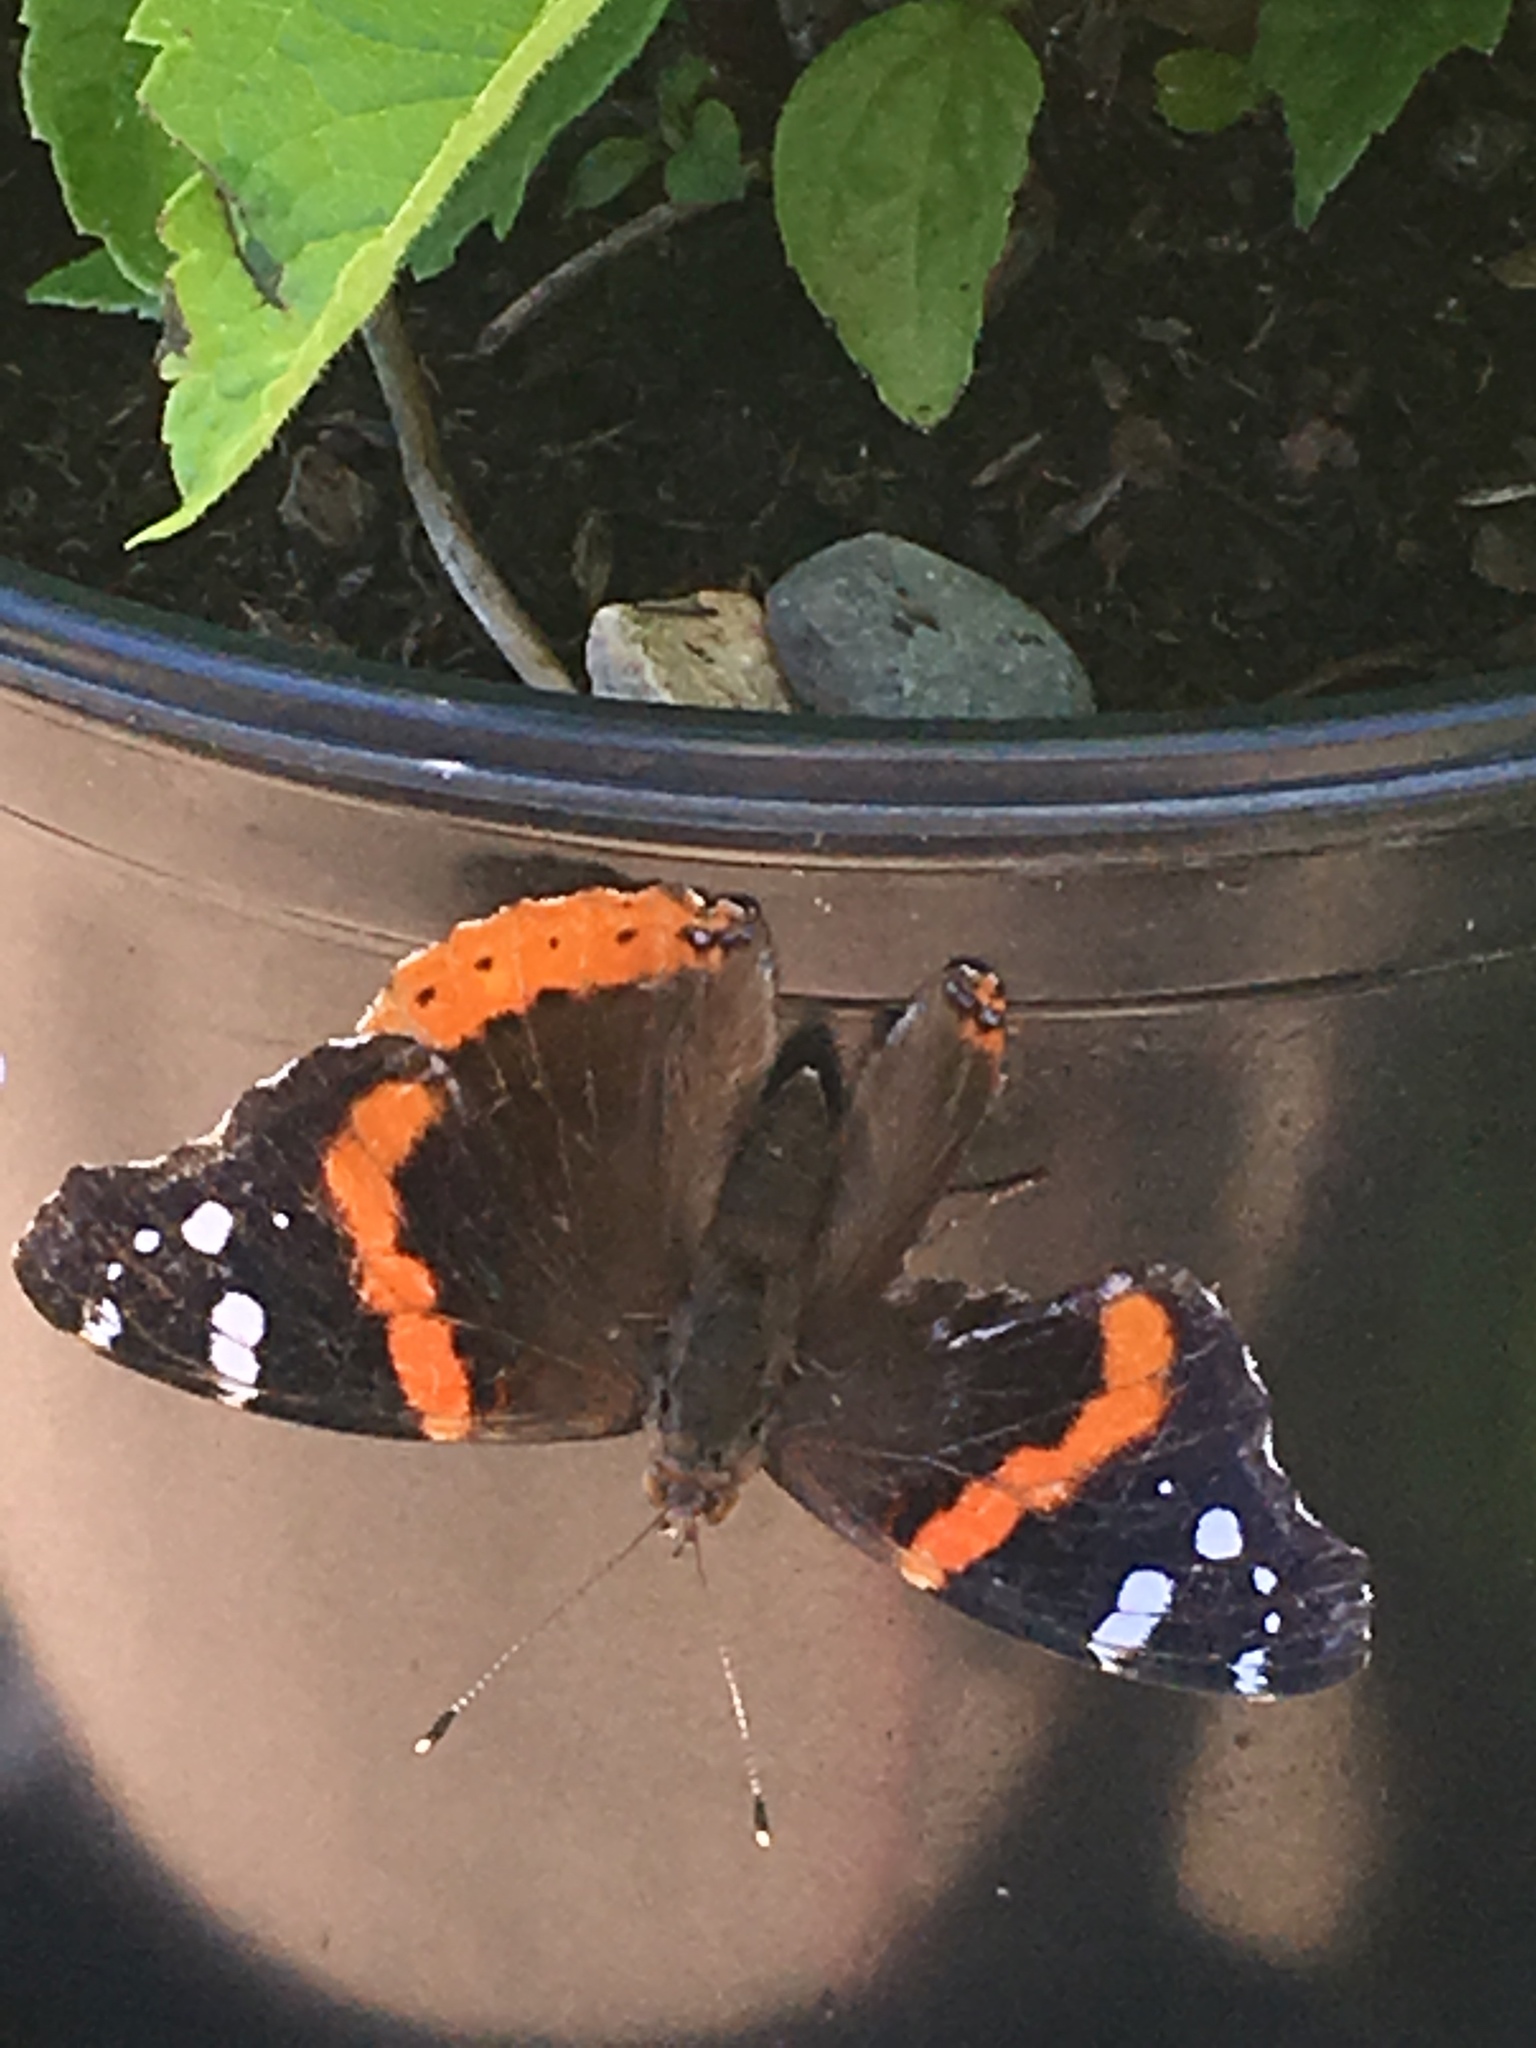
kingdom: Animalia
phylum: Arthropoda
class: Insecta
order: Lepidoptera
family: Nymphalidae
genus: Vanessa
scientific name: Vanessa atalanta
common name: Red admiral
